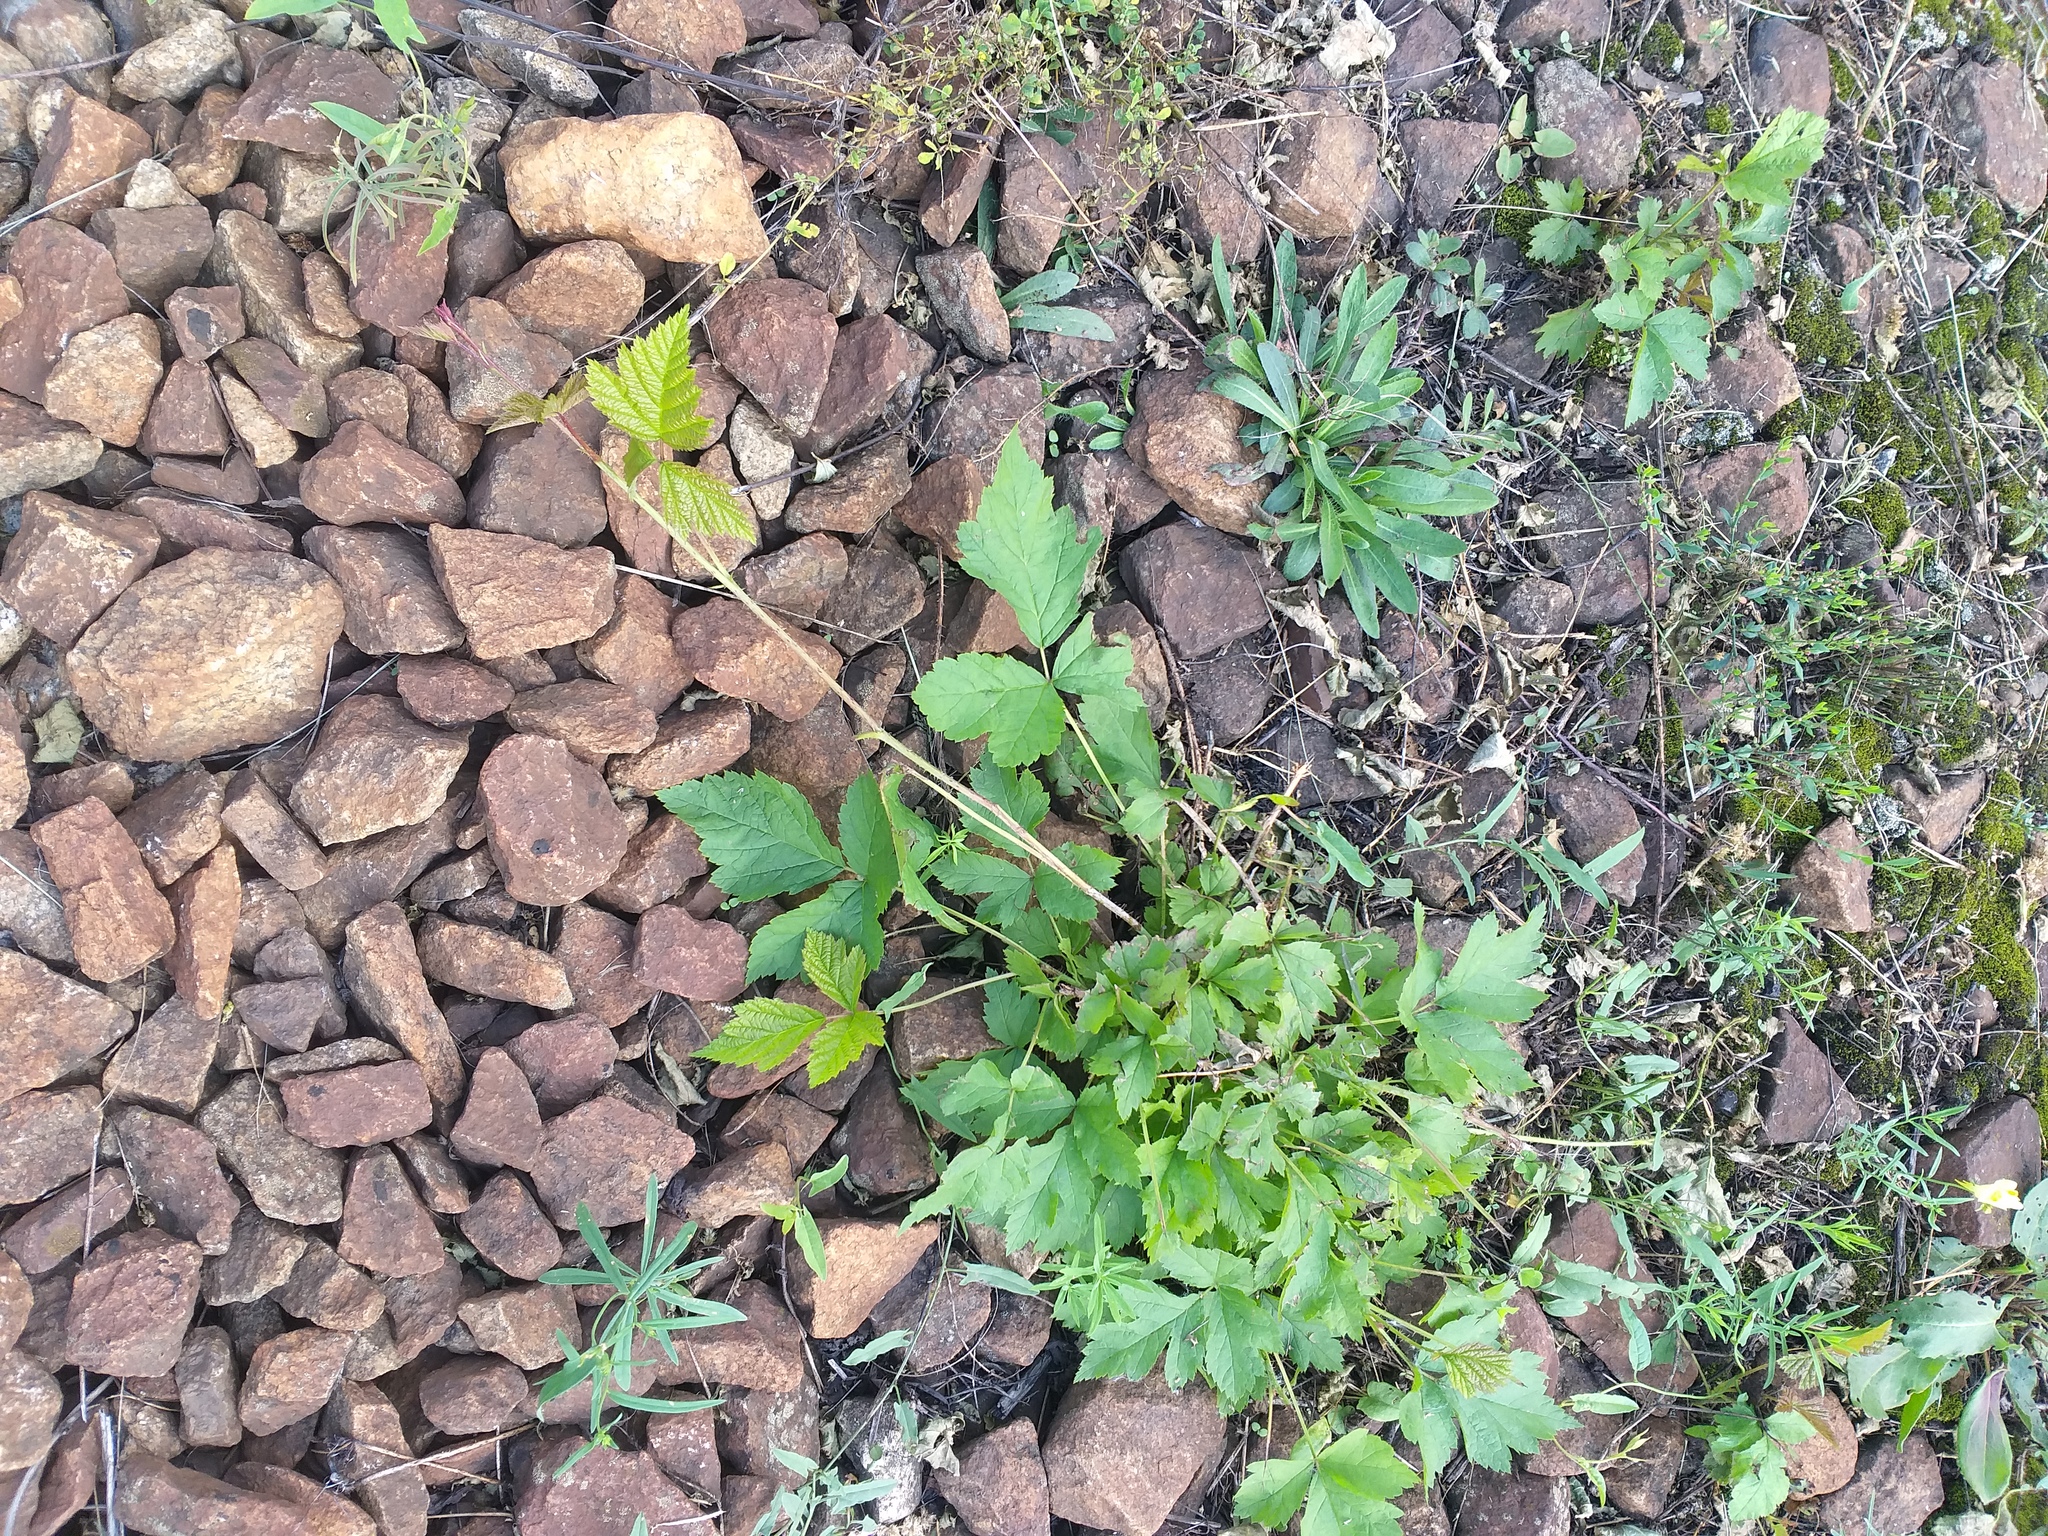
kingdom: Plantae
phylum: Tracheophyta
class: Magnoliopsida
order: Rosales
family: Rosaceae
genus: Rubus
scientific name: Rubus caesius
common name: Dewberry
